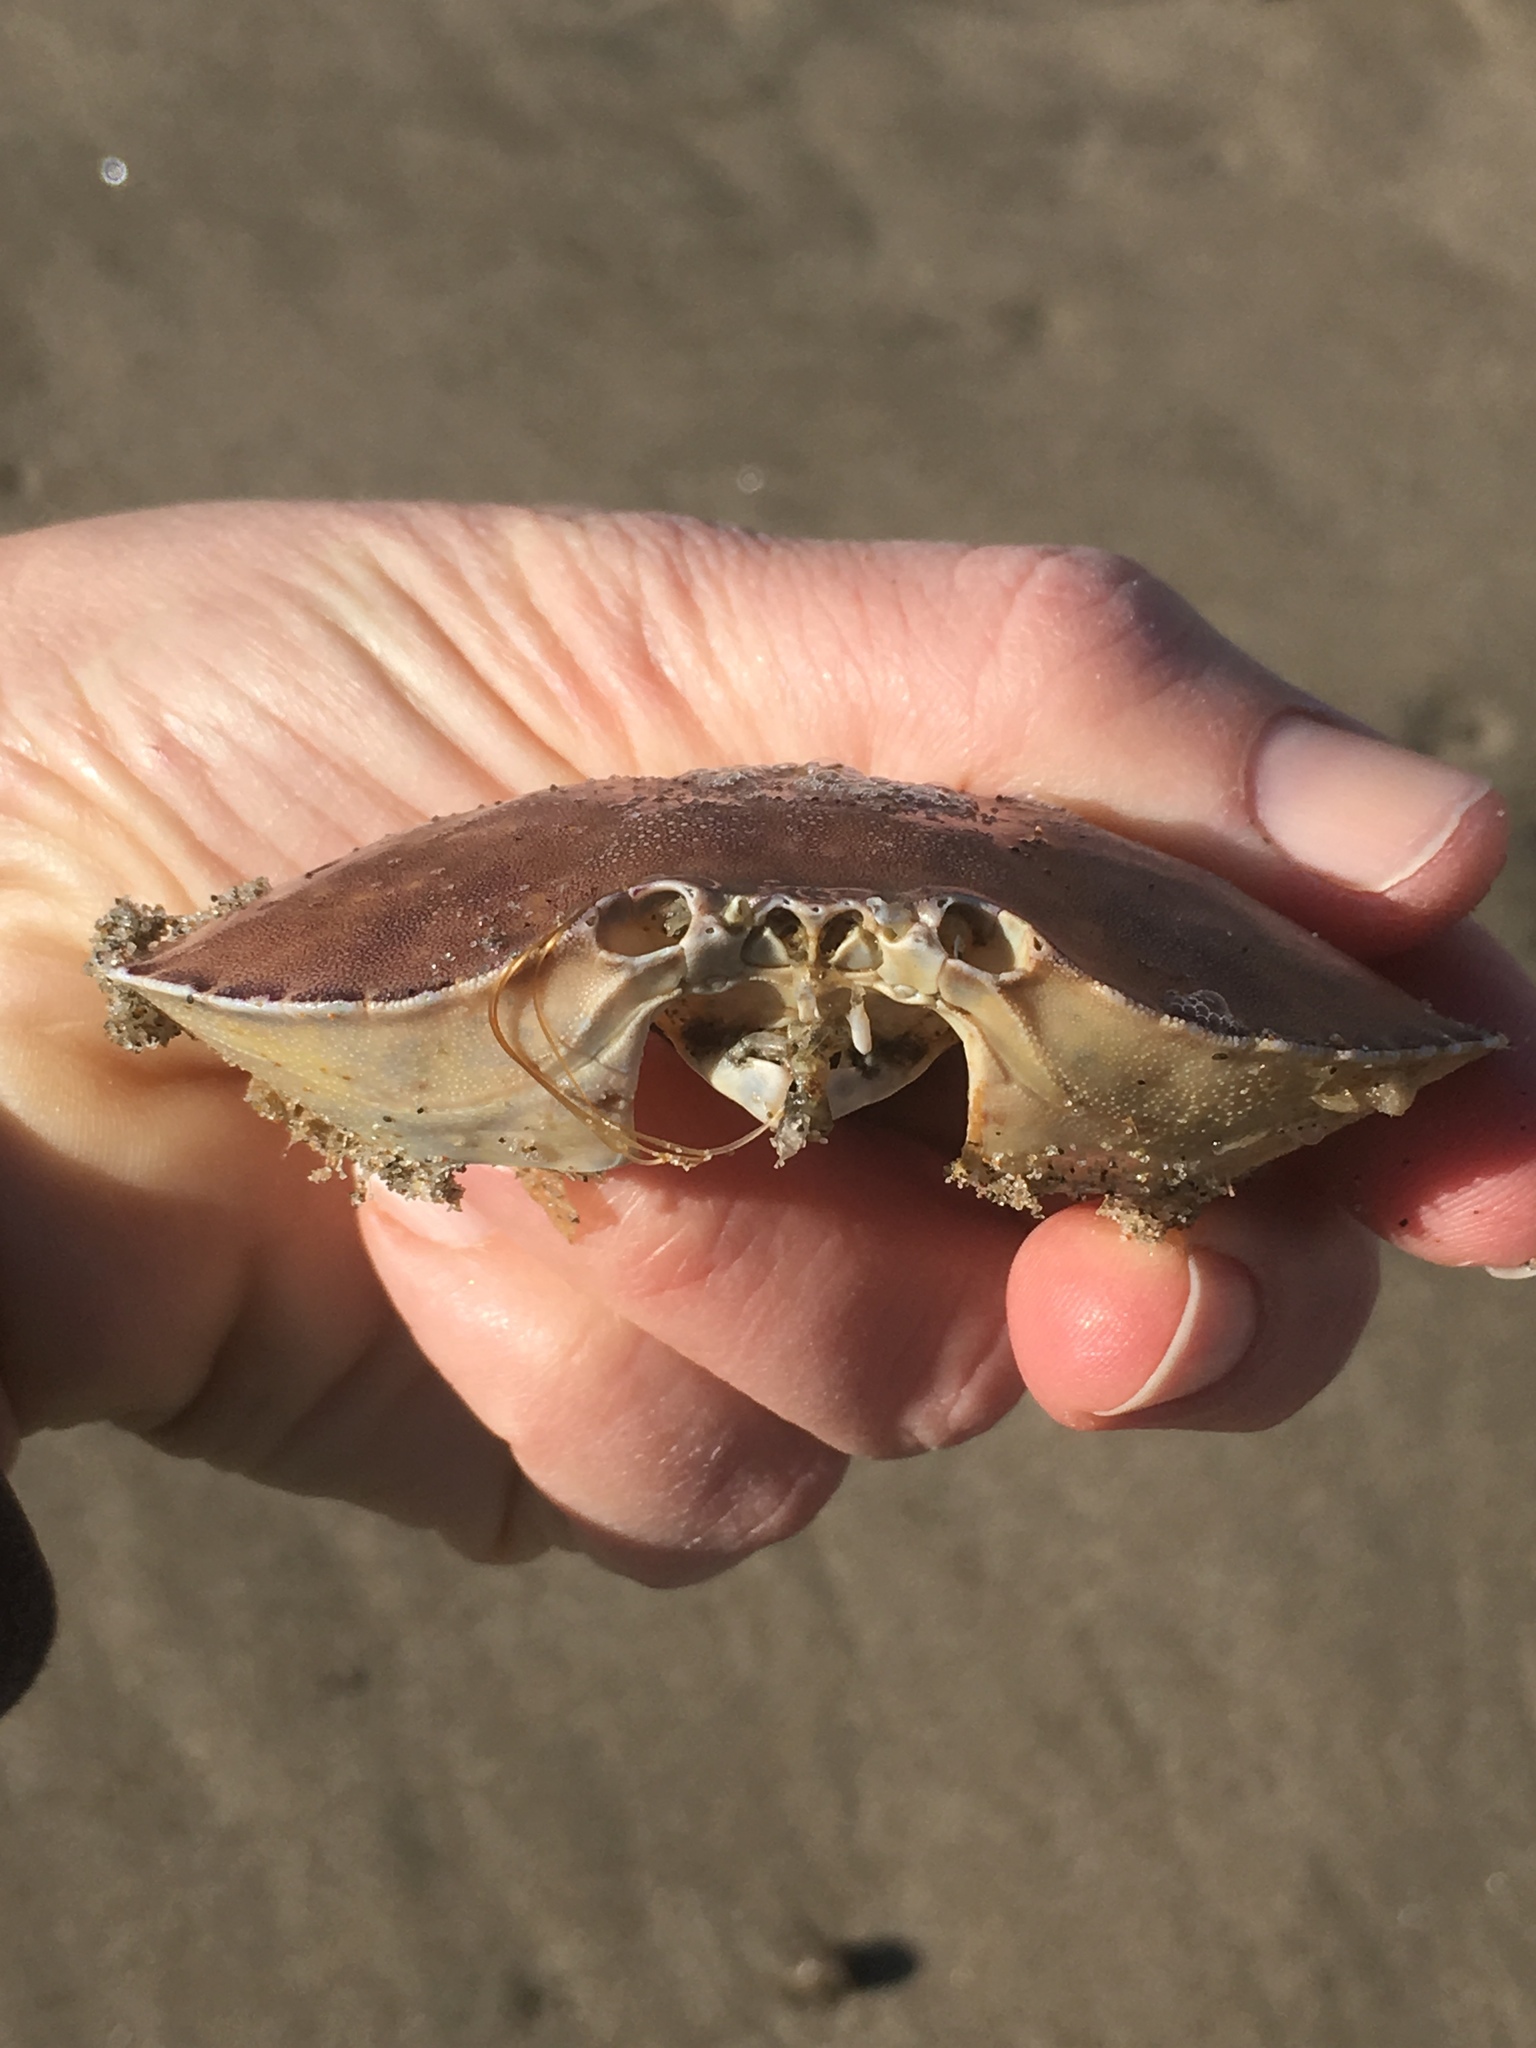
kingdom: Animalia
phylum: Arthropoda
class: Malacostraca
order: Decapoda
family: Cancridae
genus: Metacarcinus
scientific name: Metacarcinus gracilis
